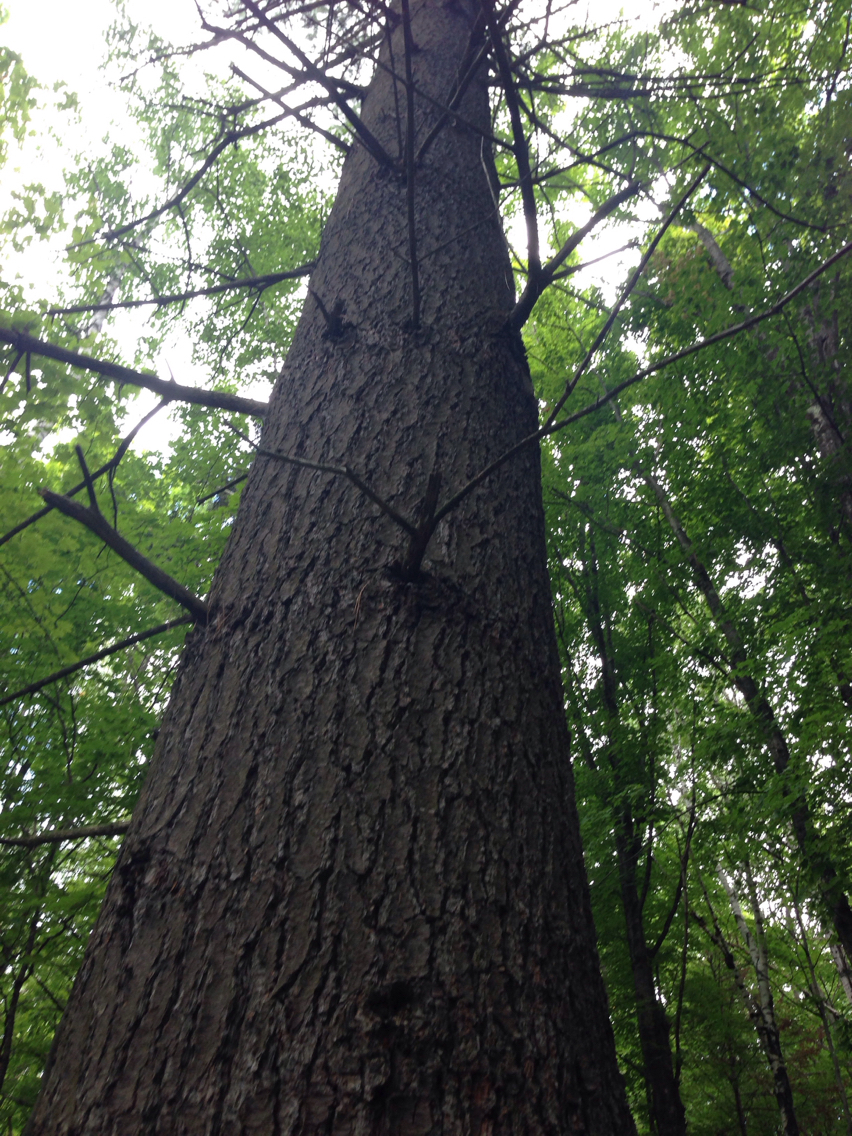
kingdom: Plantae
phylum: Tracheophyta
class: Pinopsida
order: Pinales
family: Pinaceae
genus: Pinus
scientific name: Pinus strobus
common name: Weymouth pine
